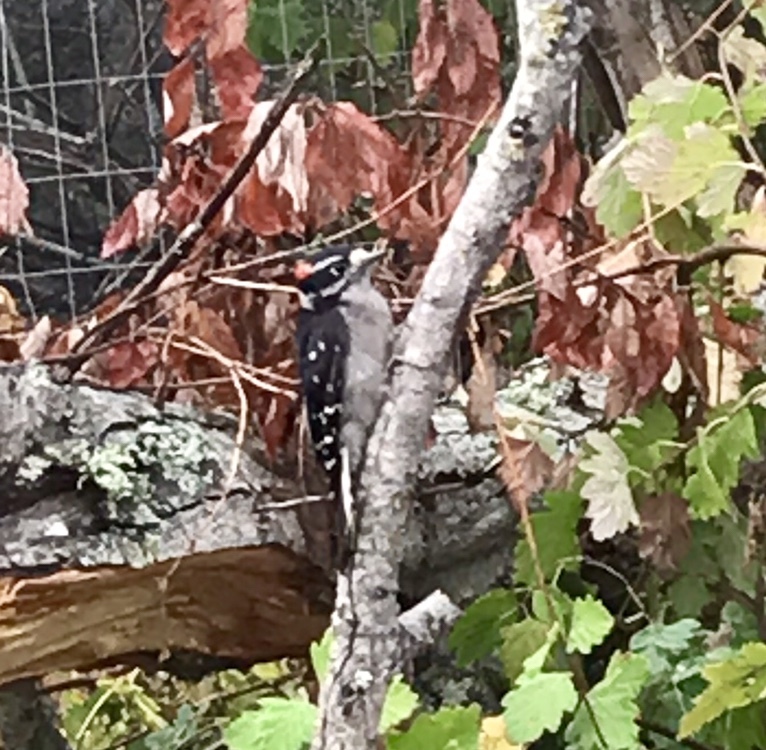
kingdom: Animalia
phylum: Chordata
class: Aves
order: Piciformes
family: Picidae
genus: Dryobates
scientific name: Dryobates pubescens
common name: Downy woodpecker
